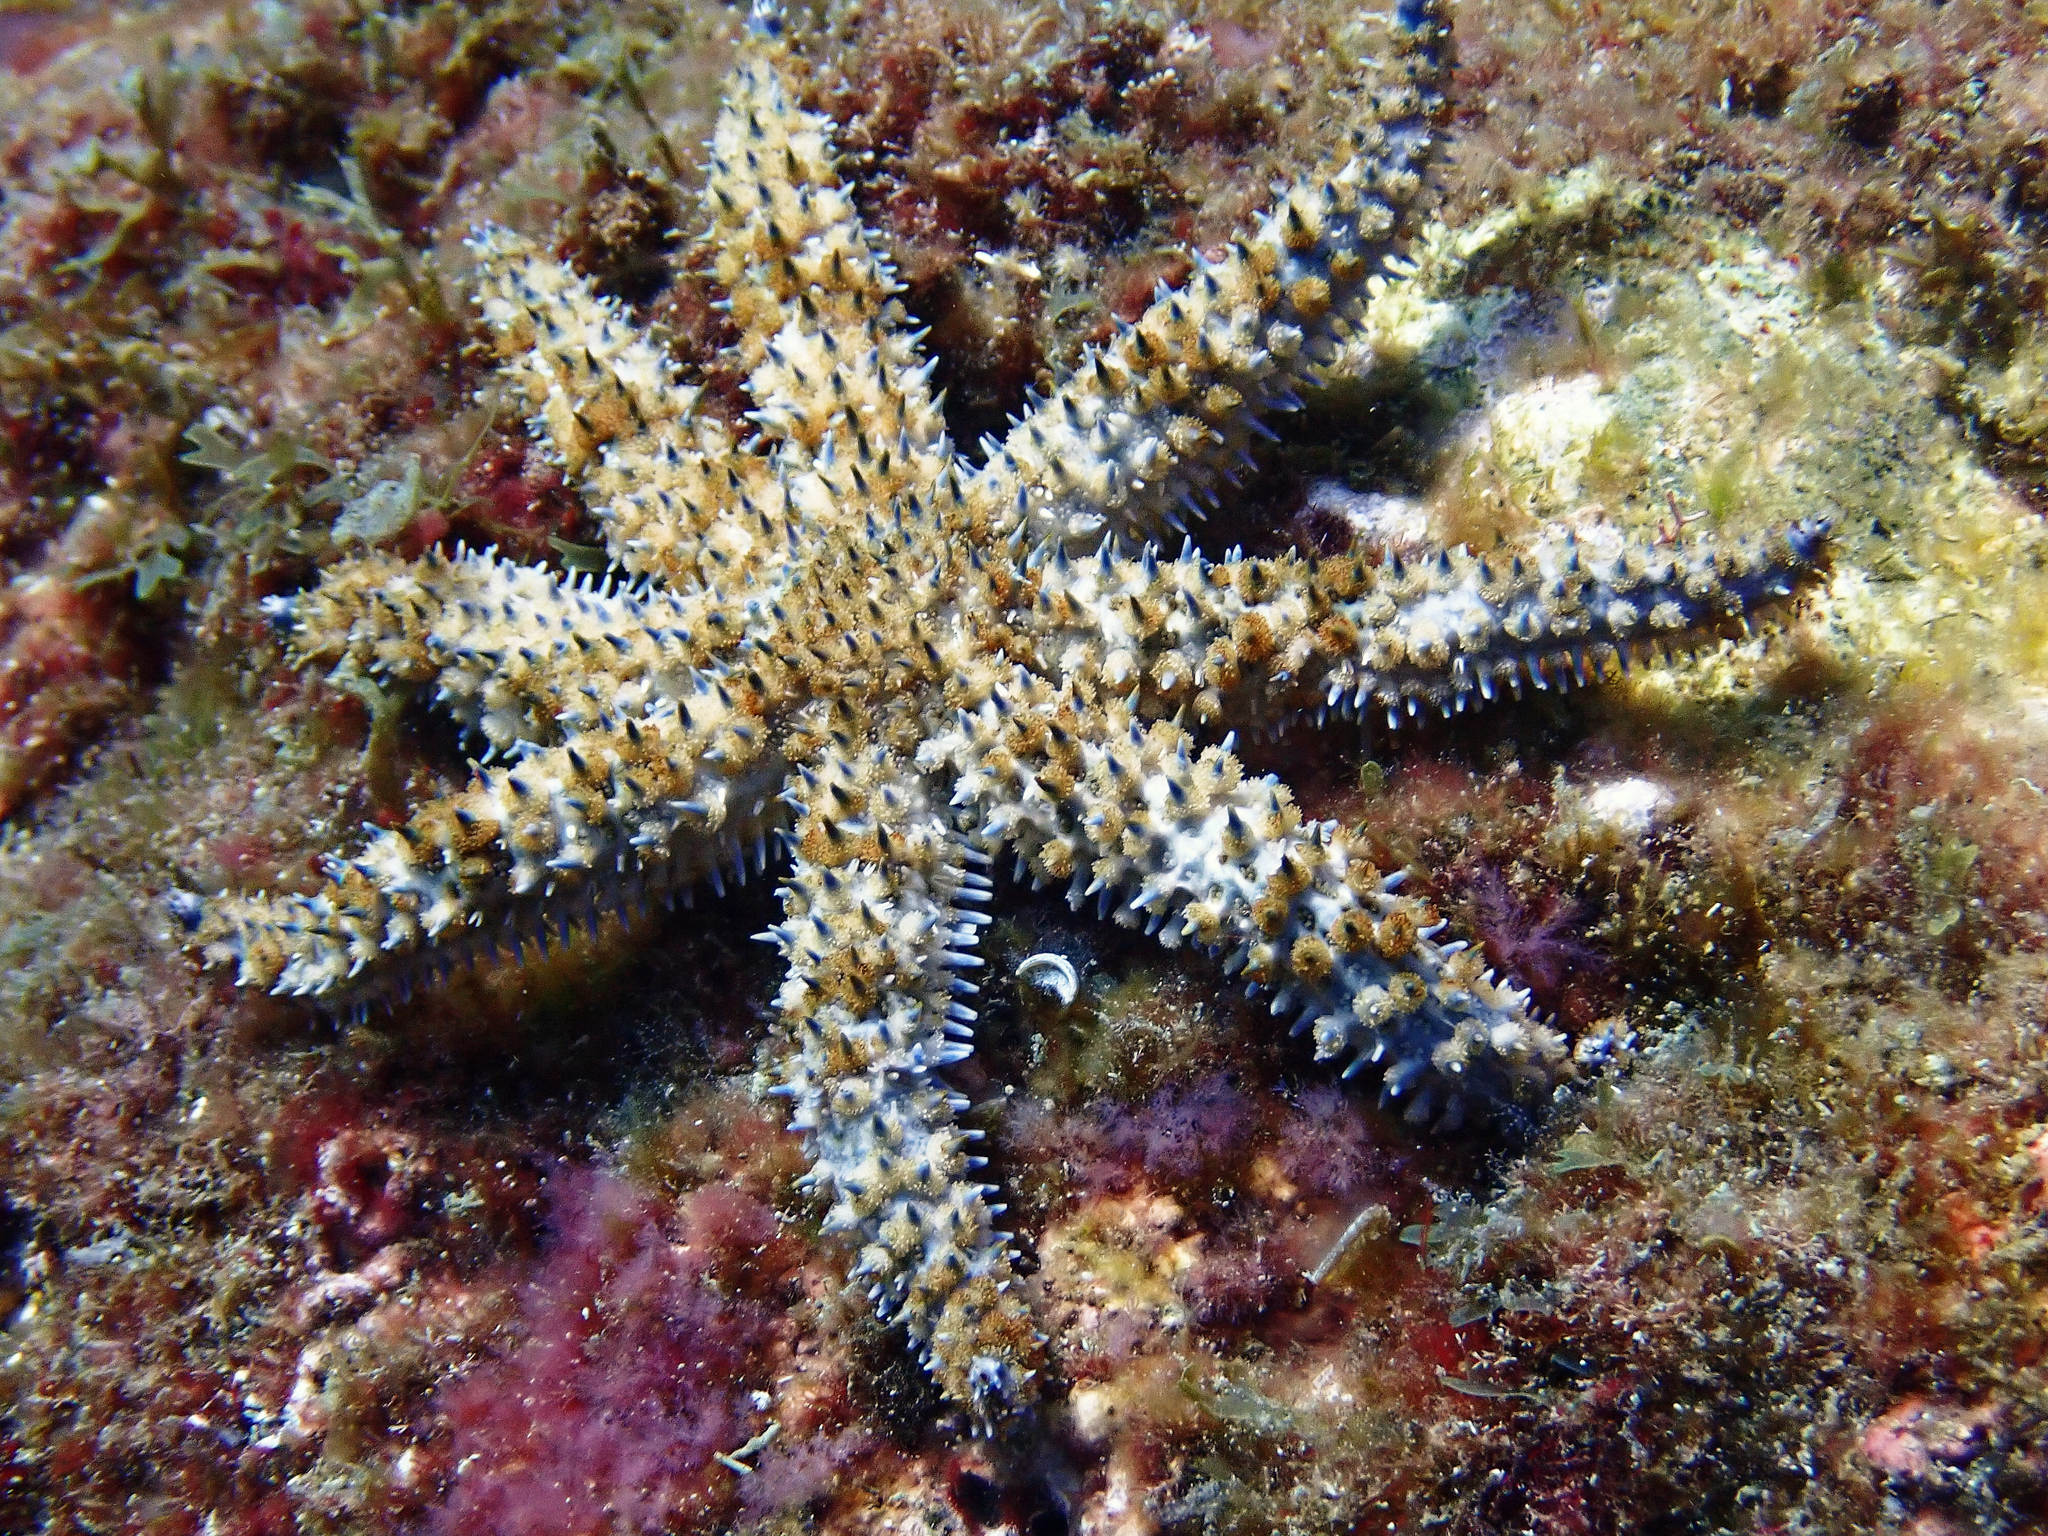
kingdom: Animalia
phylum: Echinodermata
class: Asteroidea
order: Forcipulatida
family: Asteriidae
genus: Coscinasterias
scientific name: Coscinasterias tenuispina
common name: Blue spiny starfish
